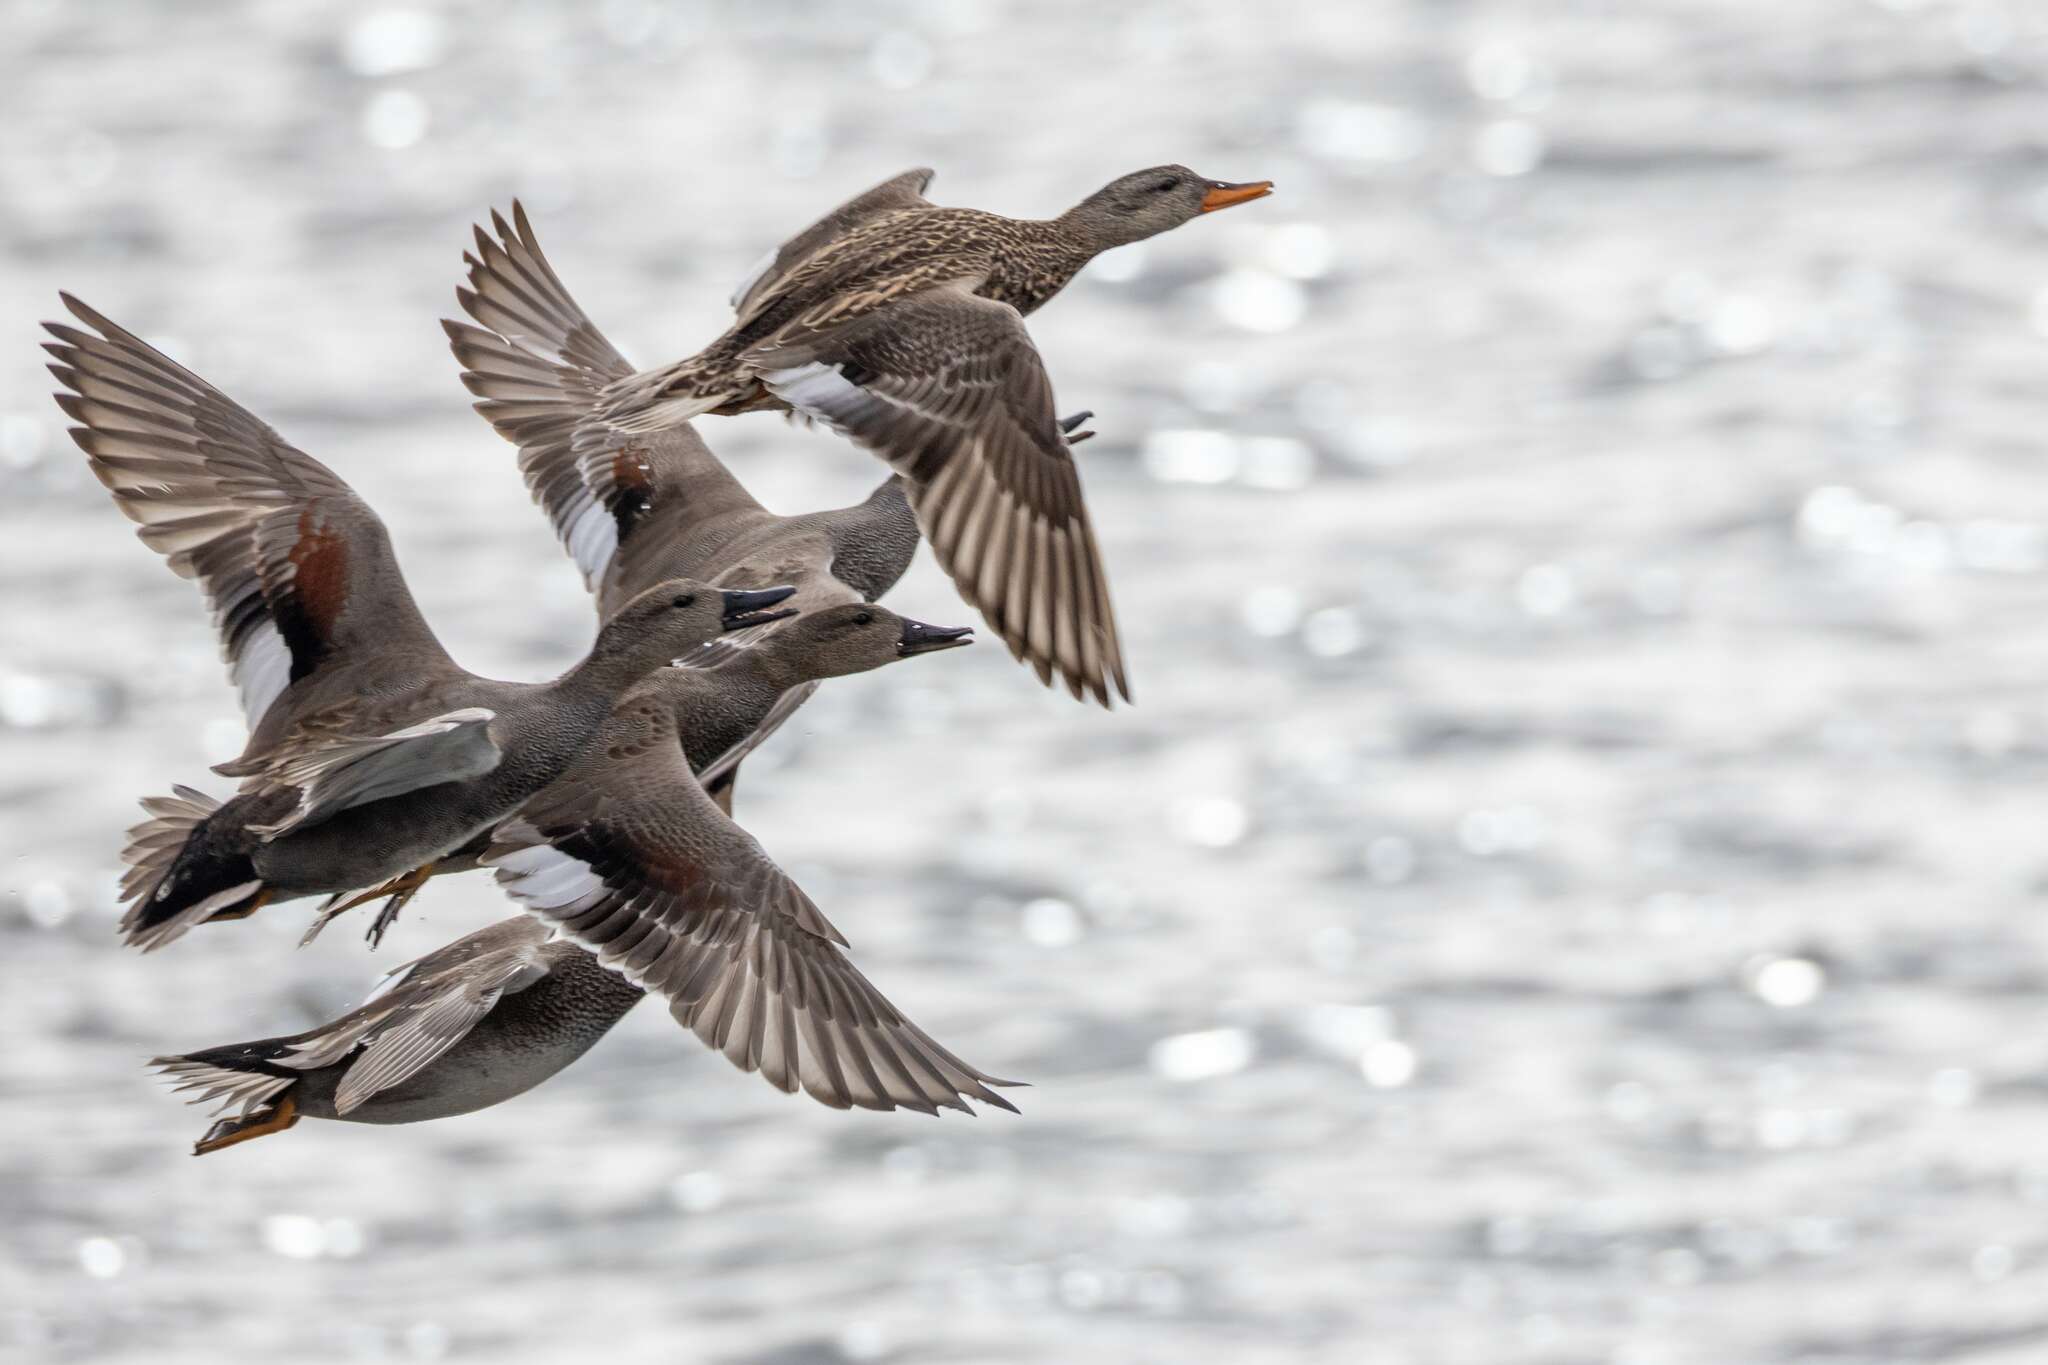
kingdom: Animalia
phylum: Chordata
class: Aves
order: Anseriformes
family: Anatidae
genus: Mareca
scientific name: Mareca strepera
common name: Gadwall
